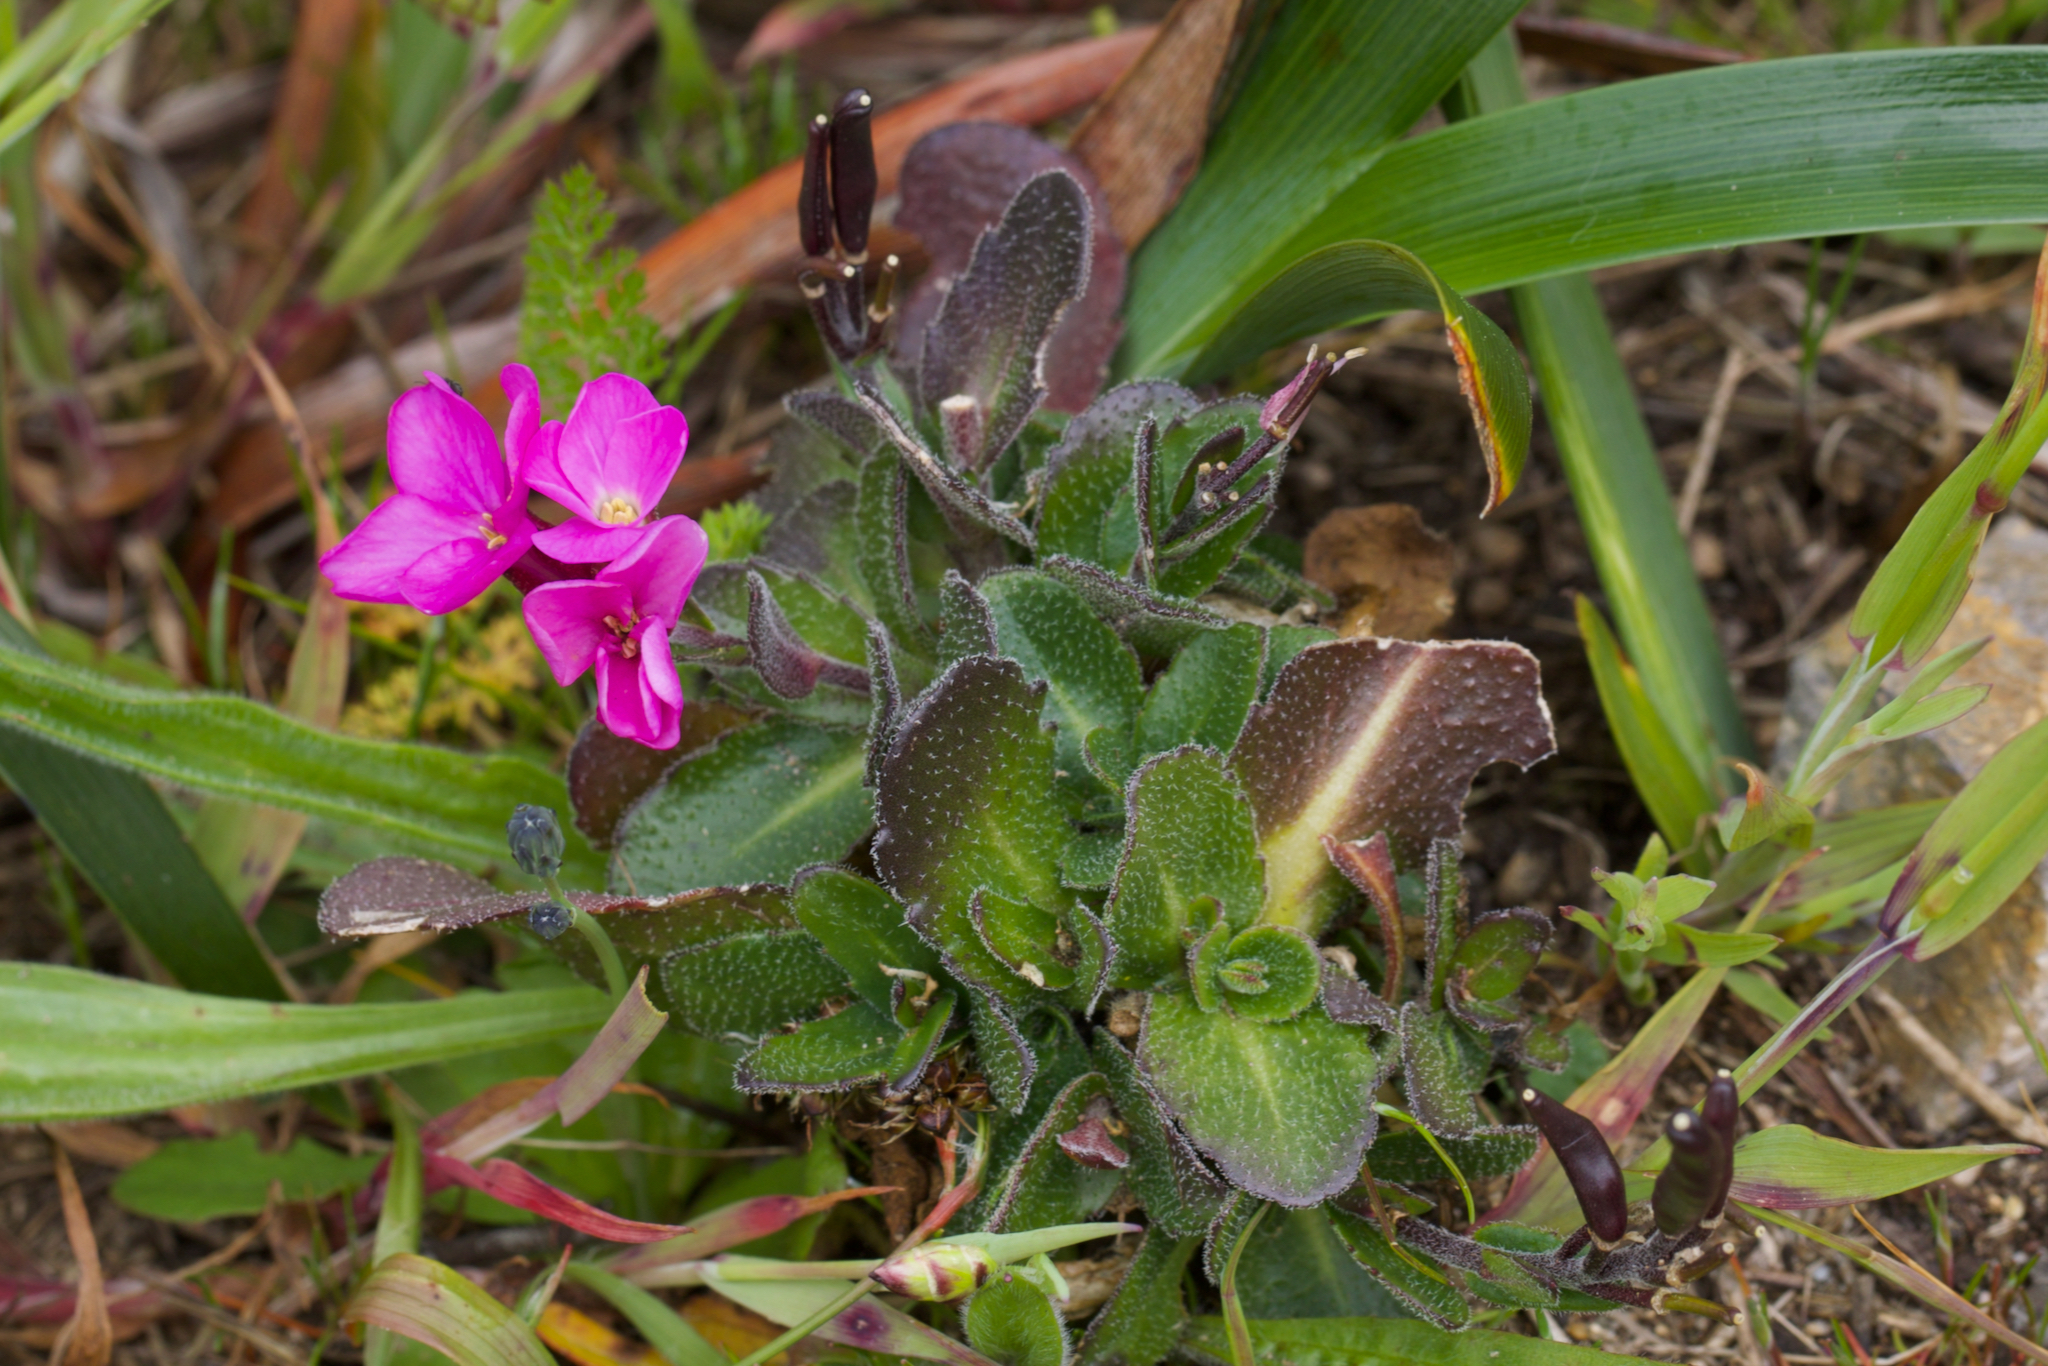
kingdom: Plantae
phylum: Tracheophyta
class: Magnoliopsida
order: Brassicales
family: Brassicaceae
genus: Arabis
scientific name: Arabis blepharophylla
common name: Rose rockcress
